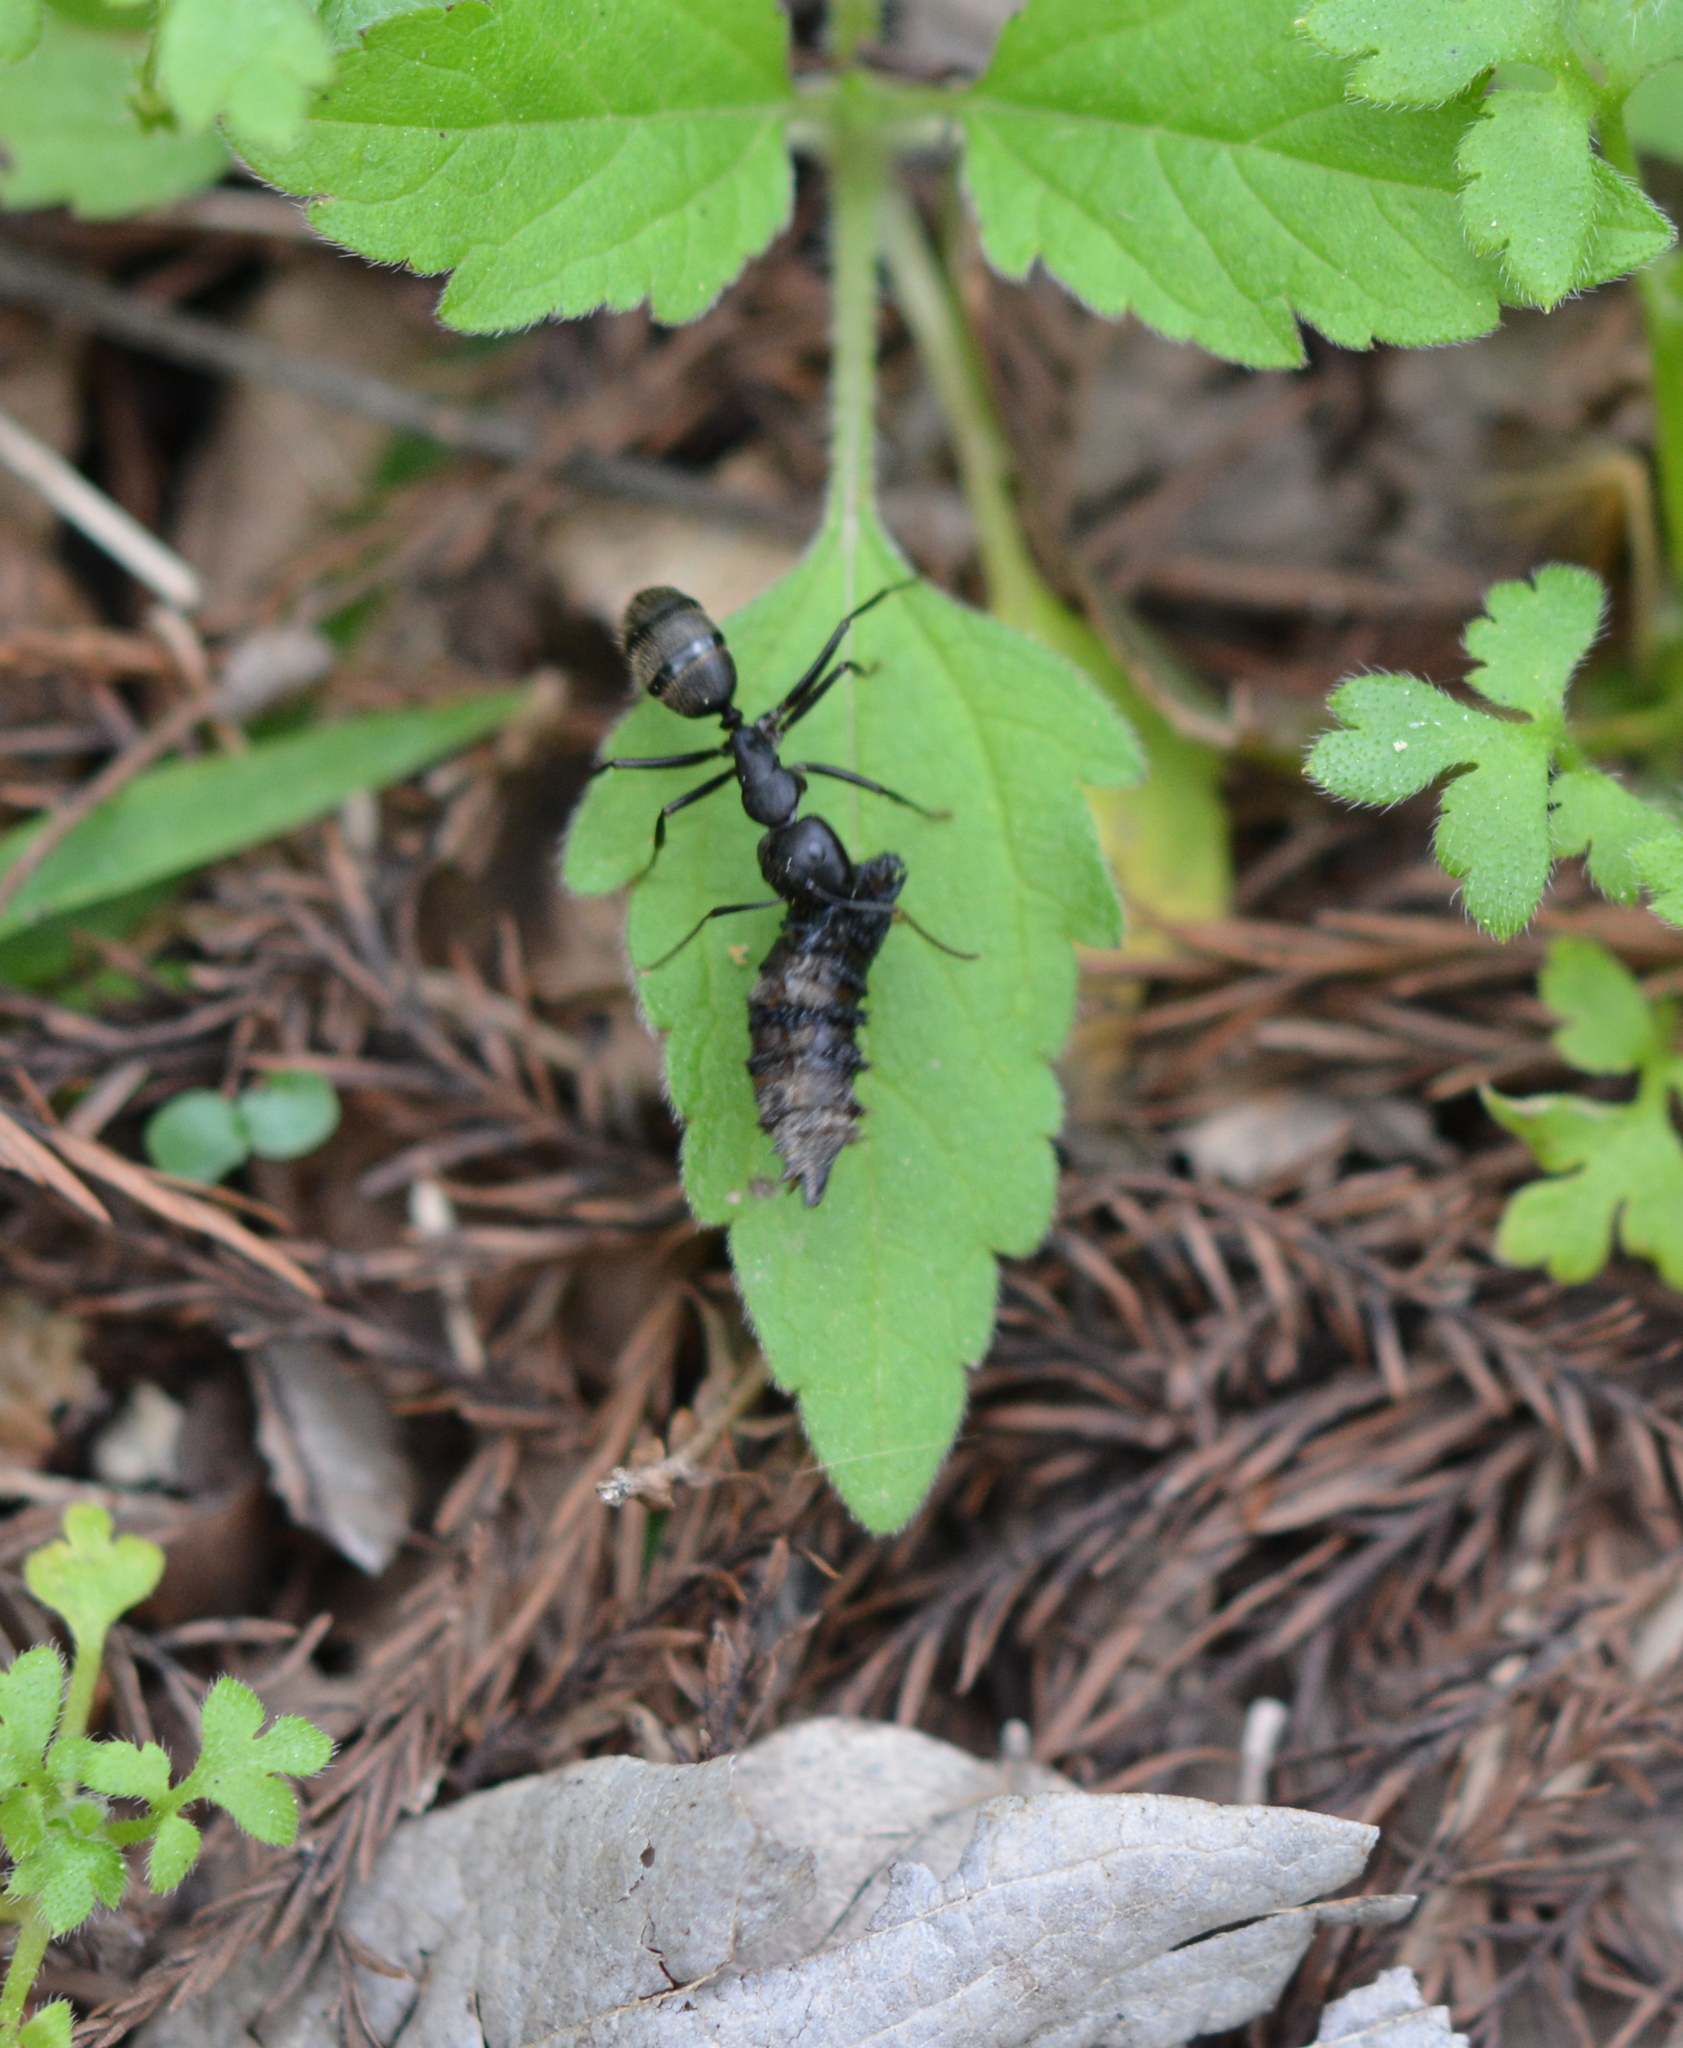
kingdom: Animalia
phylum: Arthropoda
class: Insecta
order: Hymenoptera
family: Formicidae
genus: Camponotus
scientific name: Camponotus pennsylvanicus
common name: Black carpenter ant
